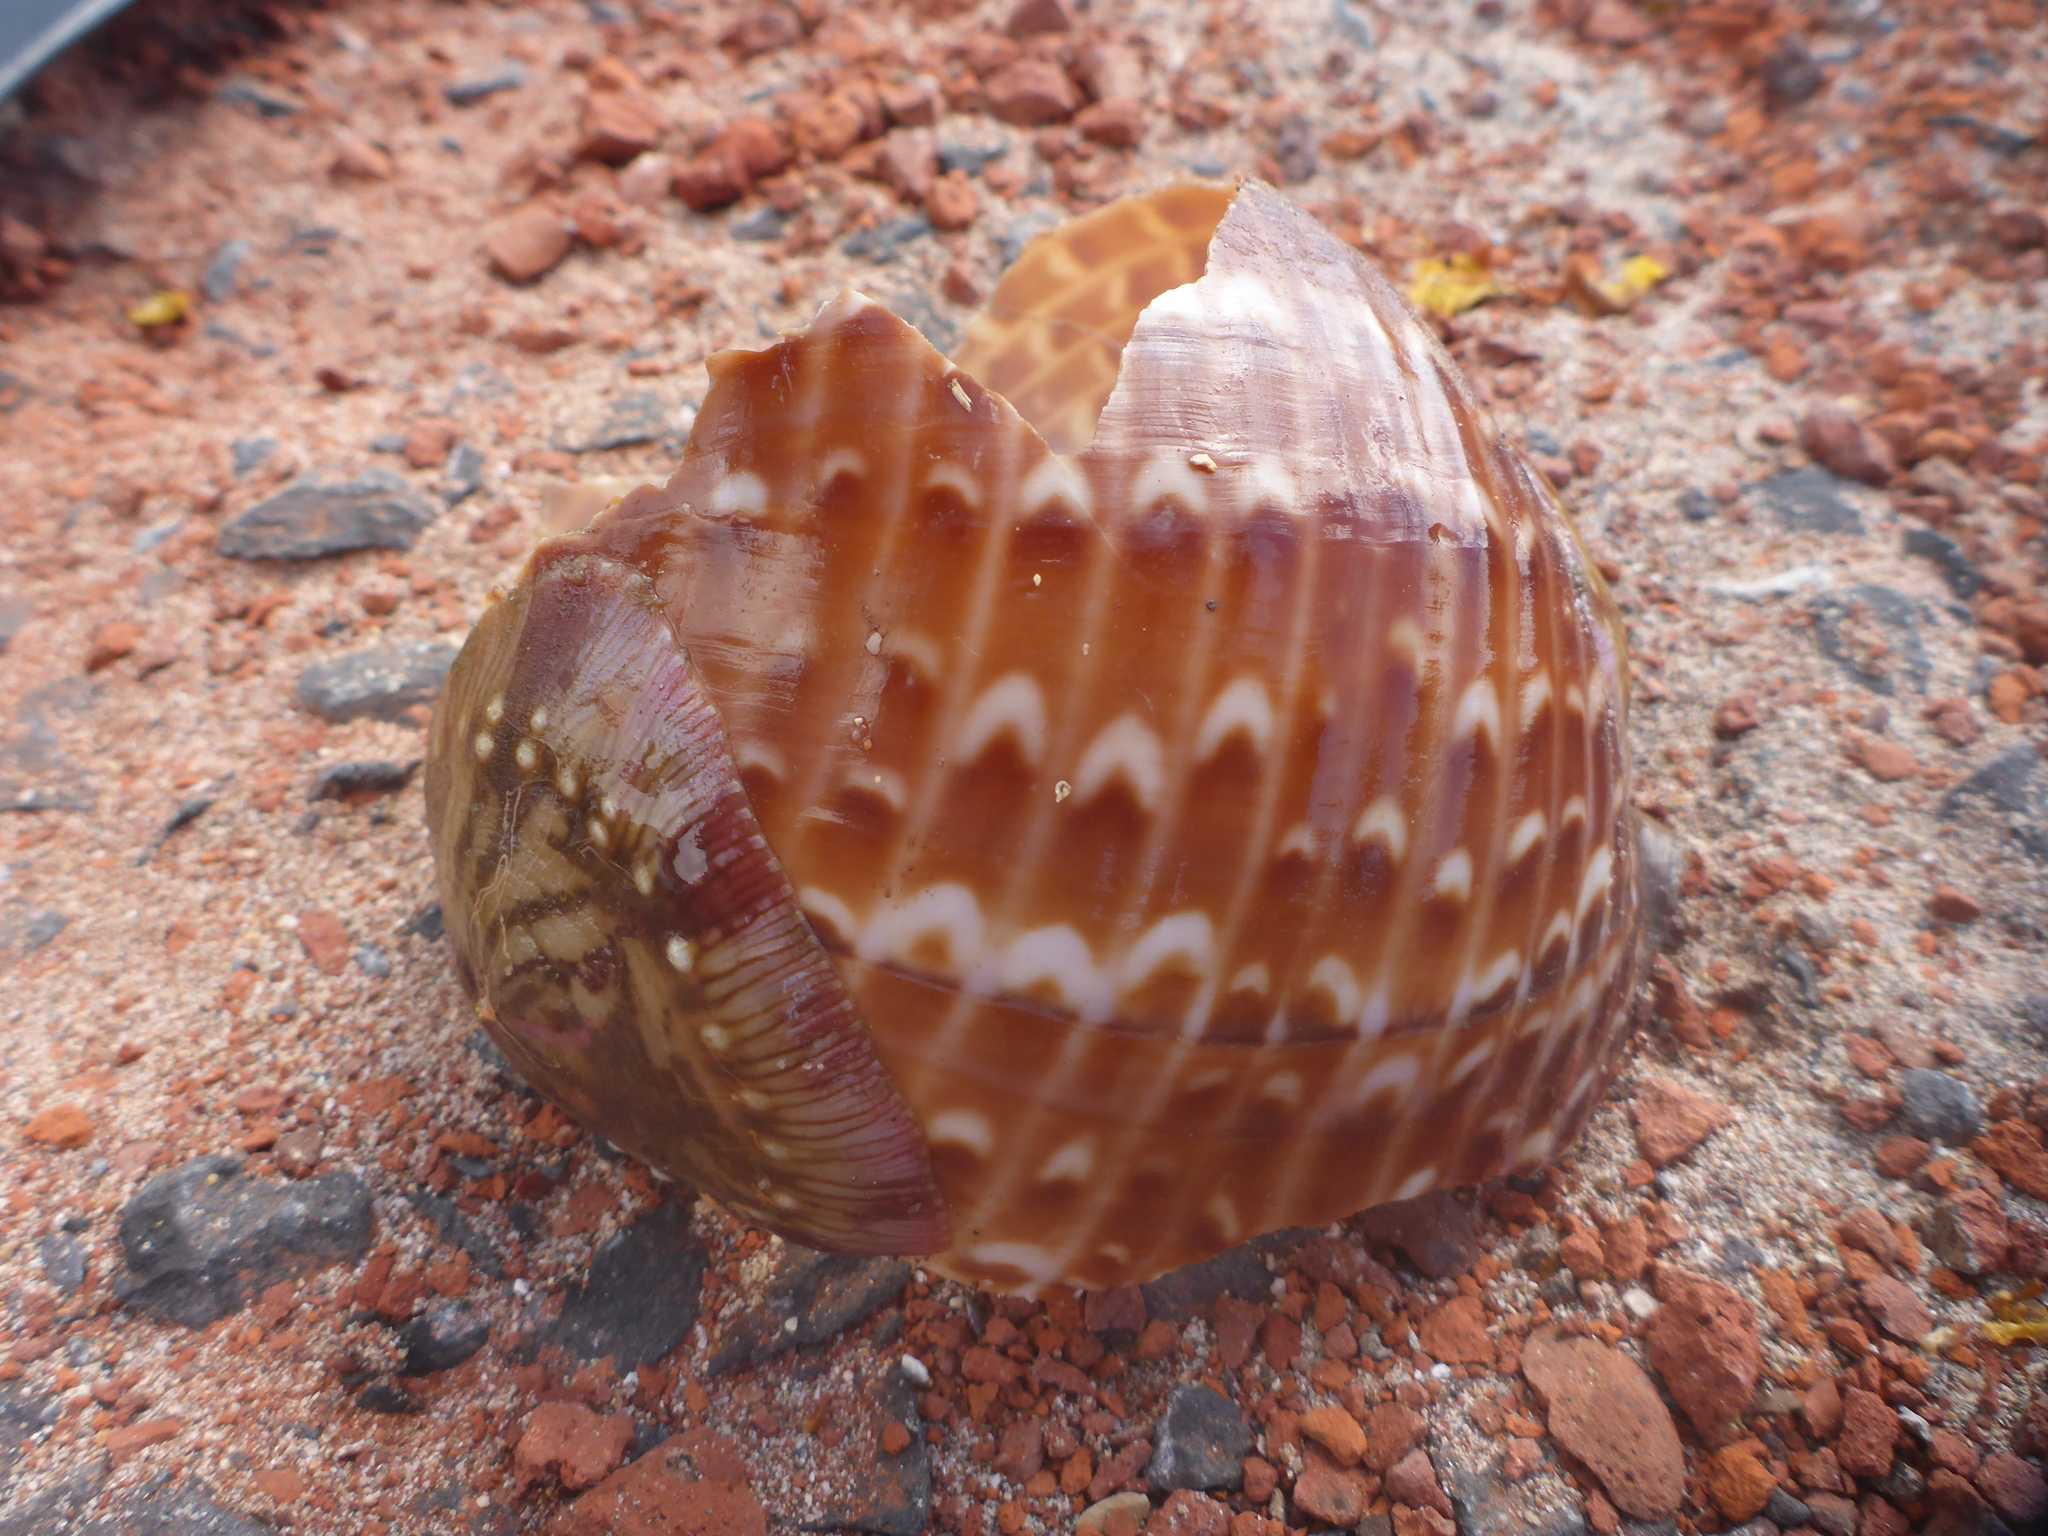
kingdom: Animalia
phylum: Mollusca
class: Gastropoda
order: Littorinimorpha
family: Tonnidae
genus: Tonna
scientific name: Tonna perdix
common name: Pacific partridge tun
